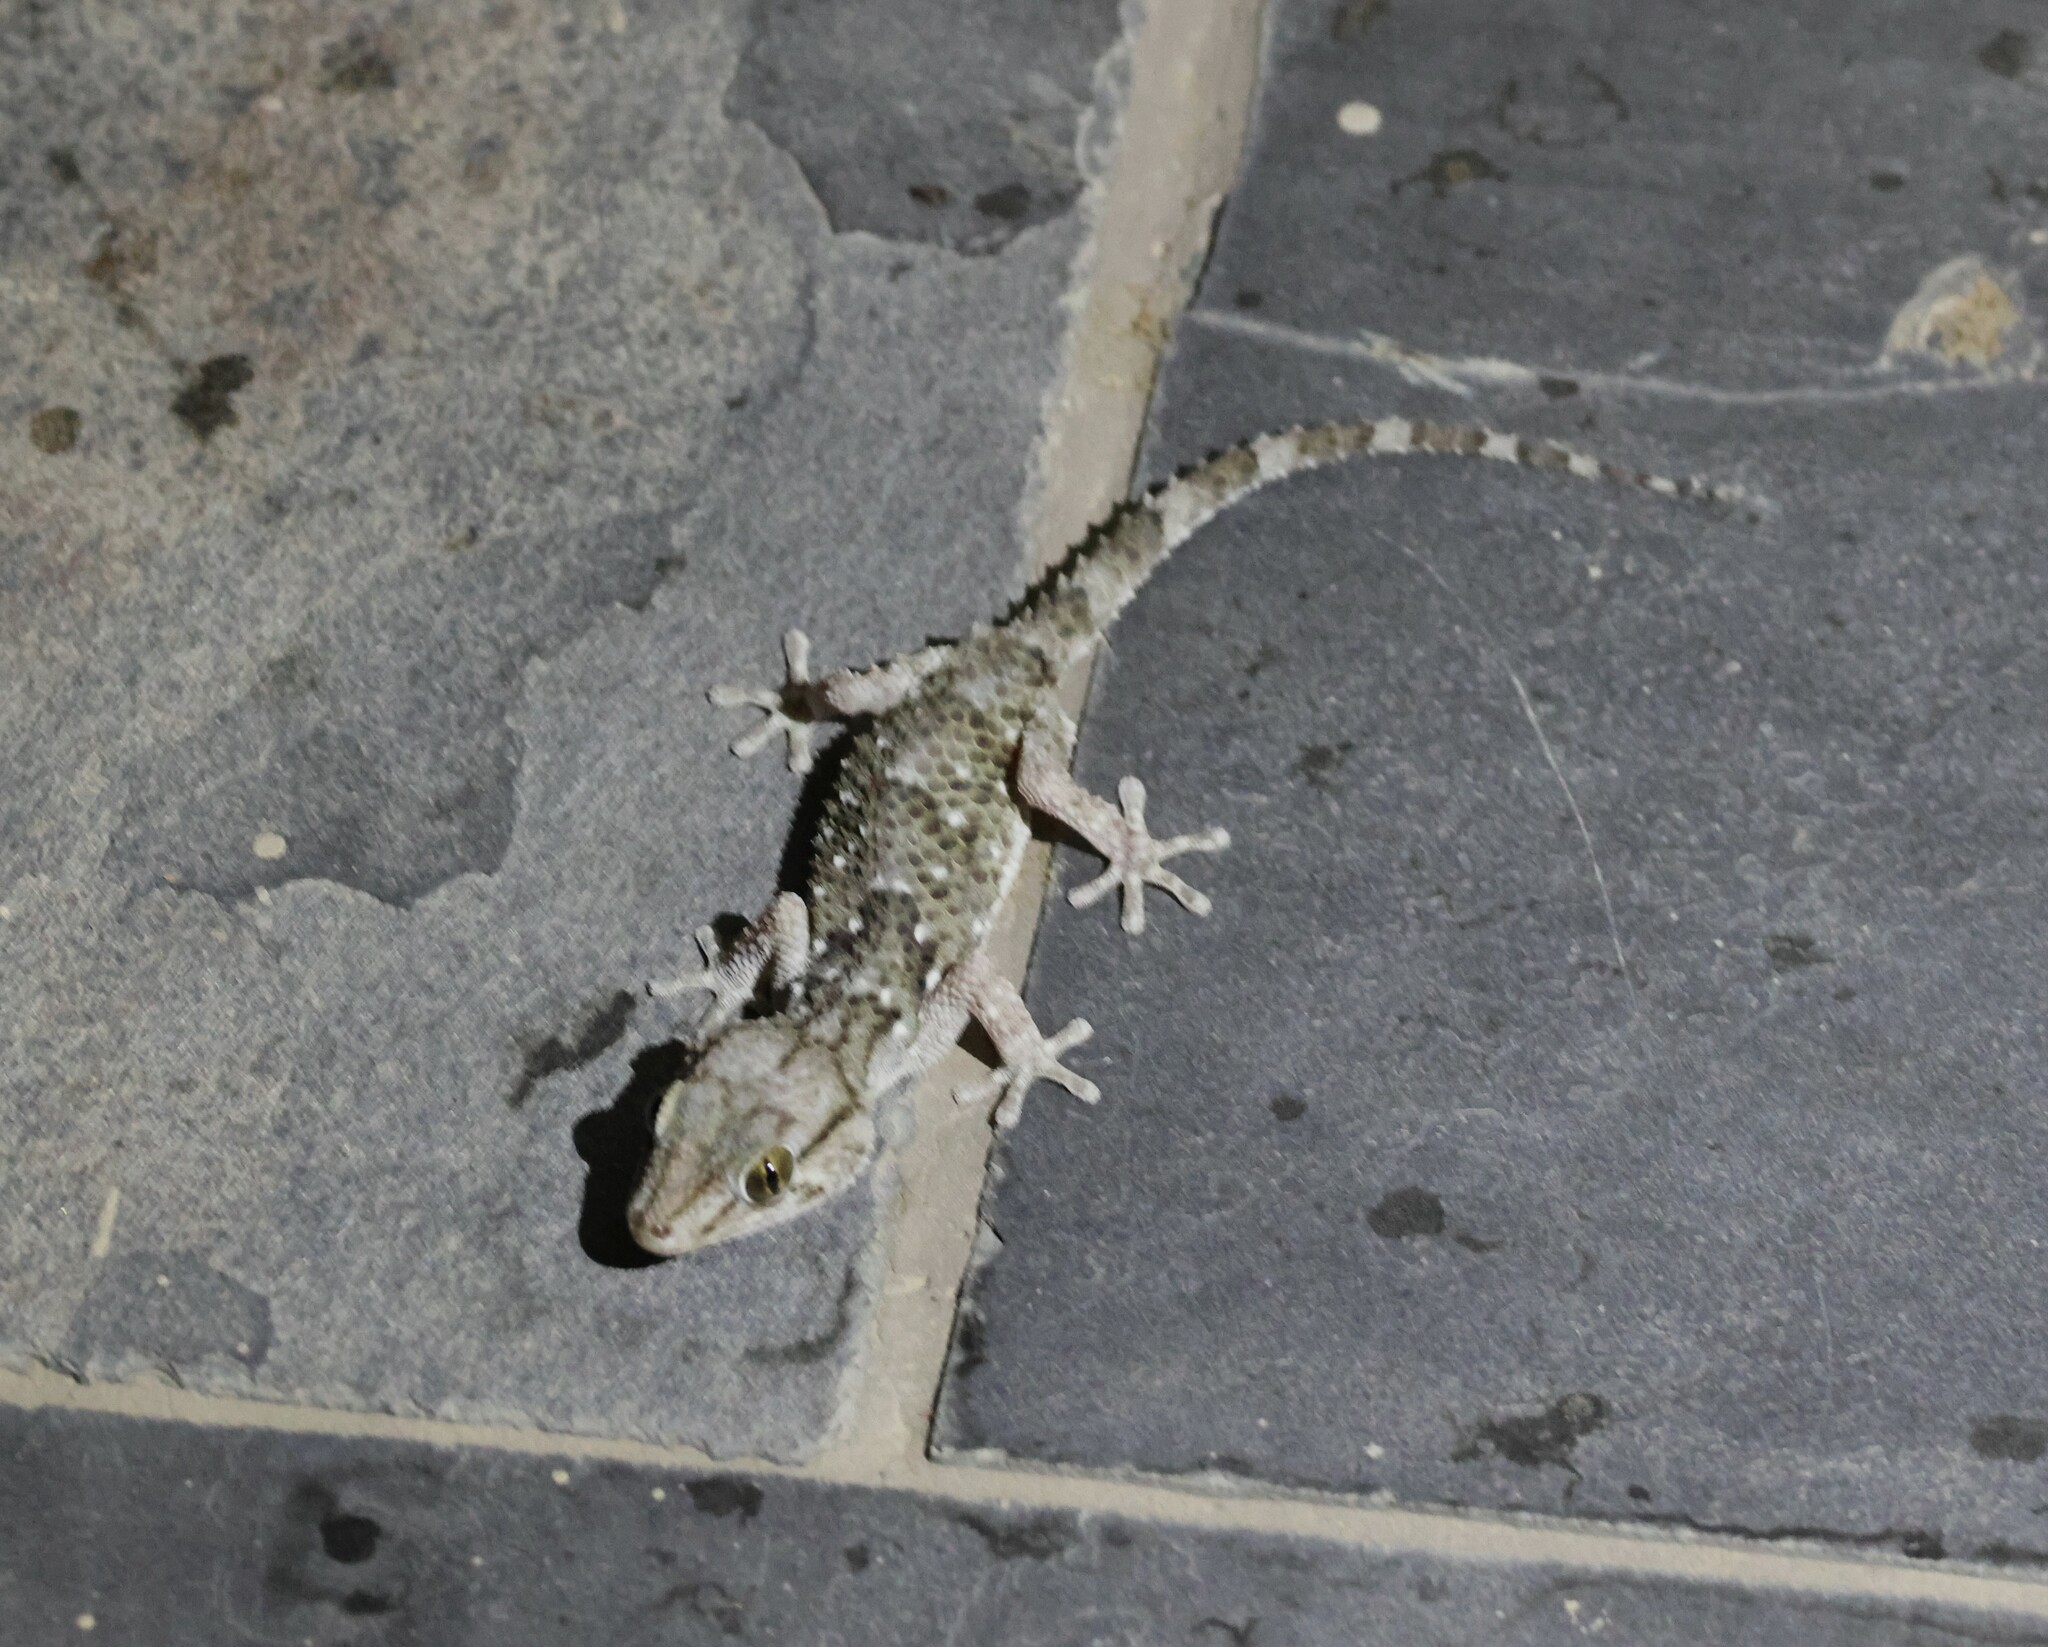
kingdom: Animalia
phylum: Chordata
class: Squamata
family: Gekkonidae
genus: Chondrodactylus
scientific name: Chondrodactylus laevigatus
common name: Fischer's thick-toed gecko
